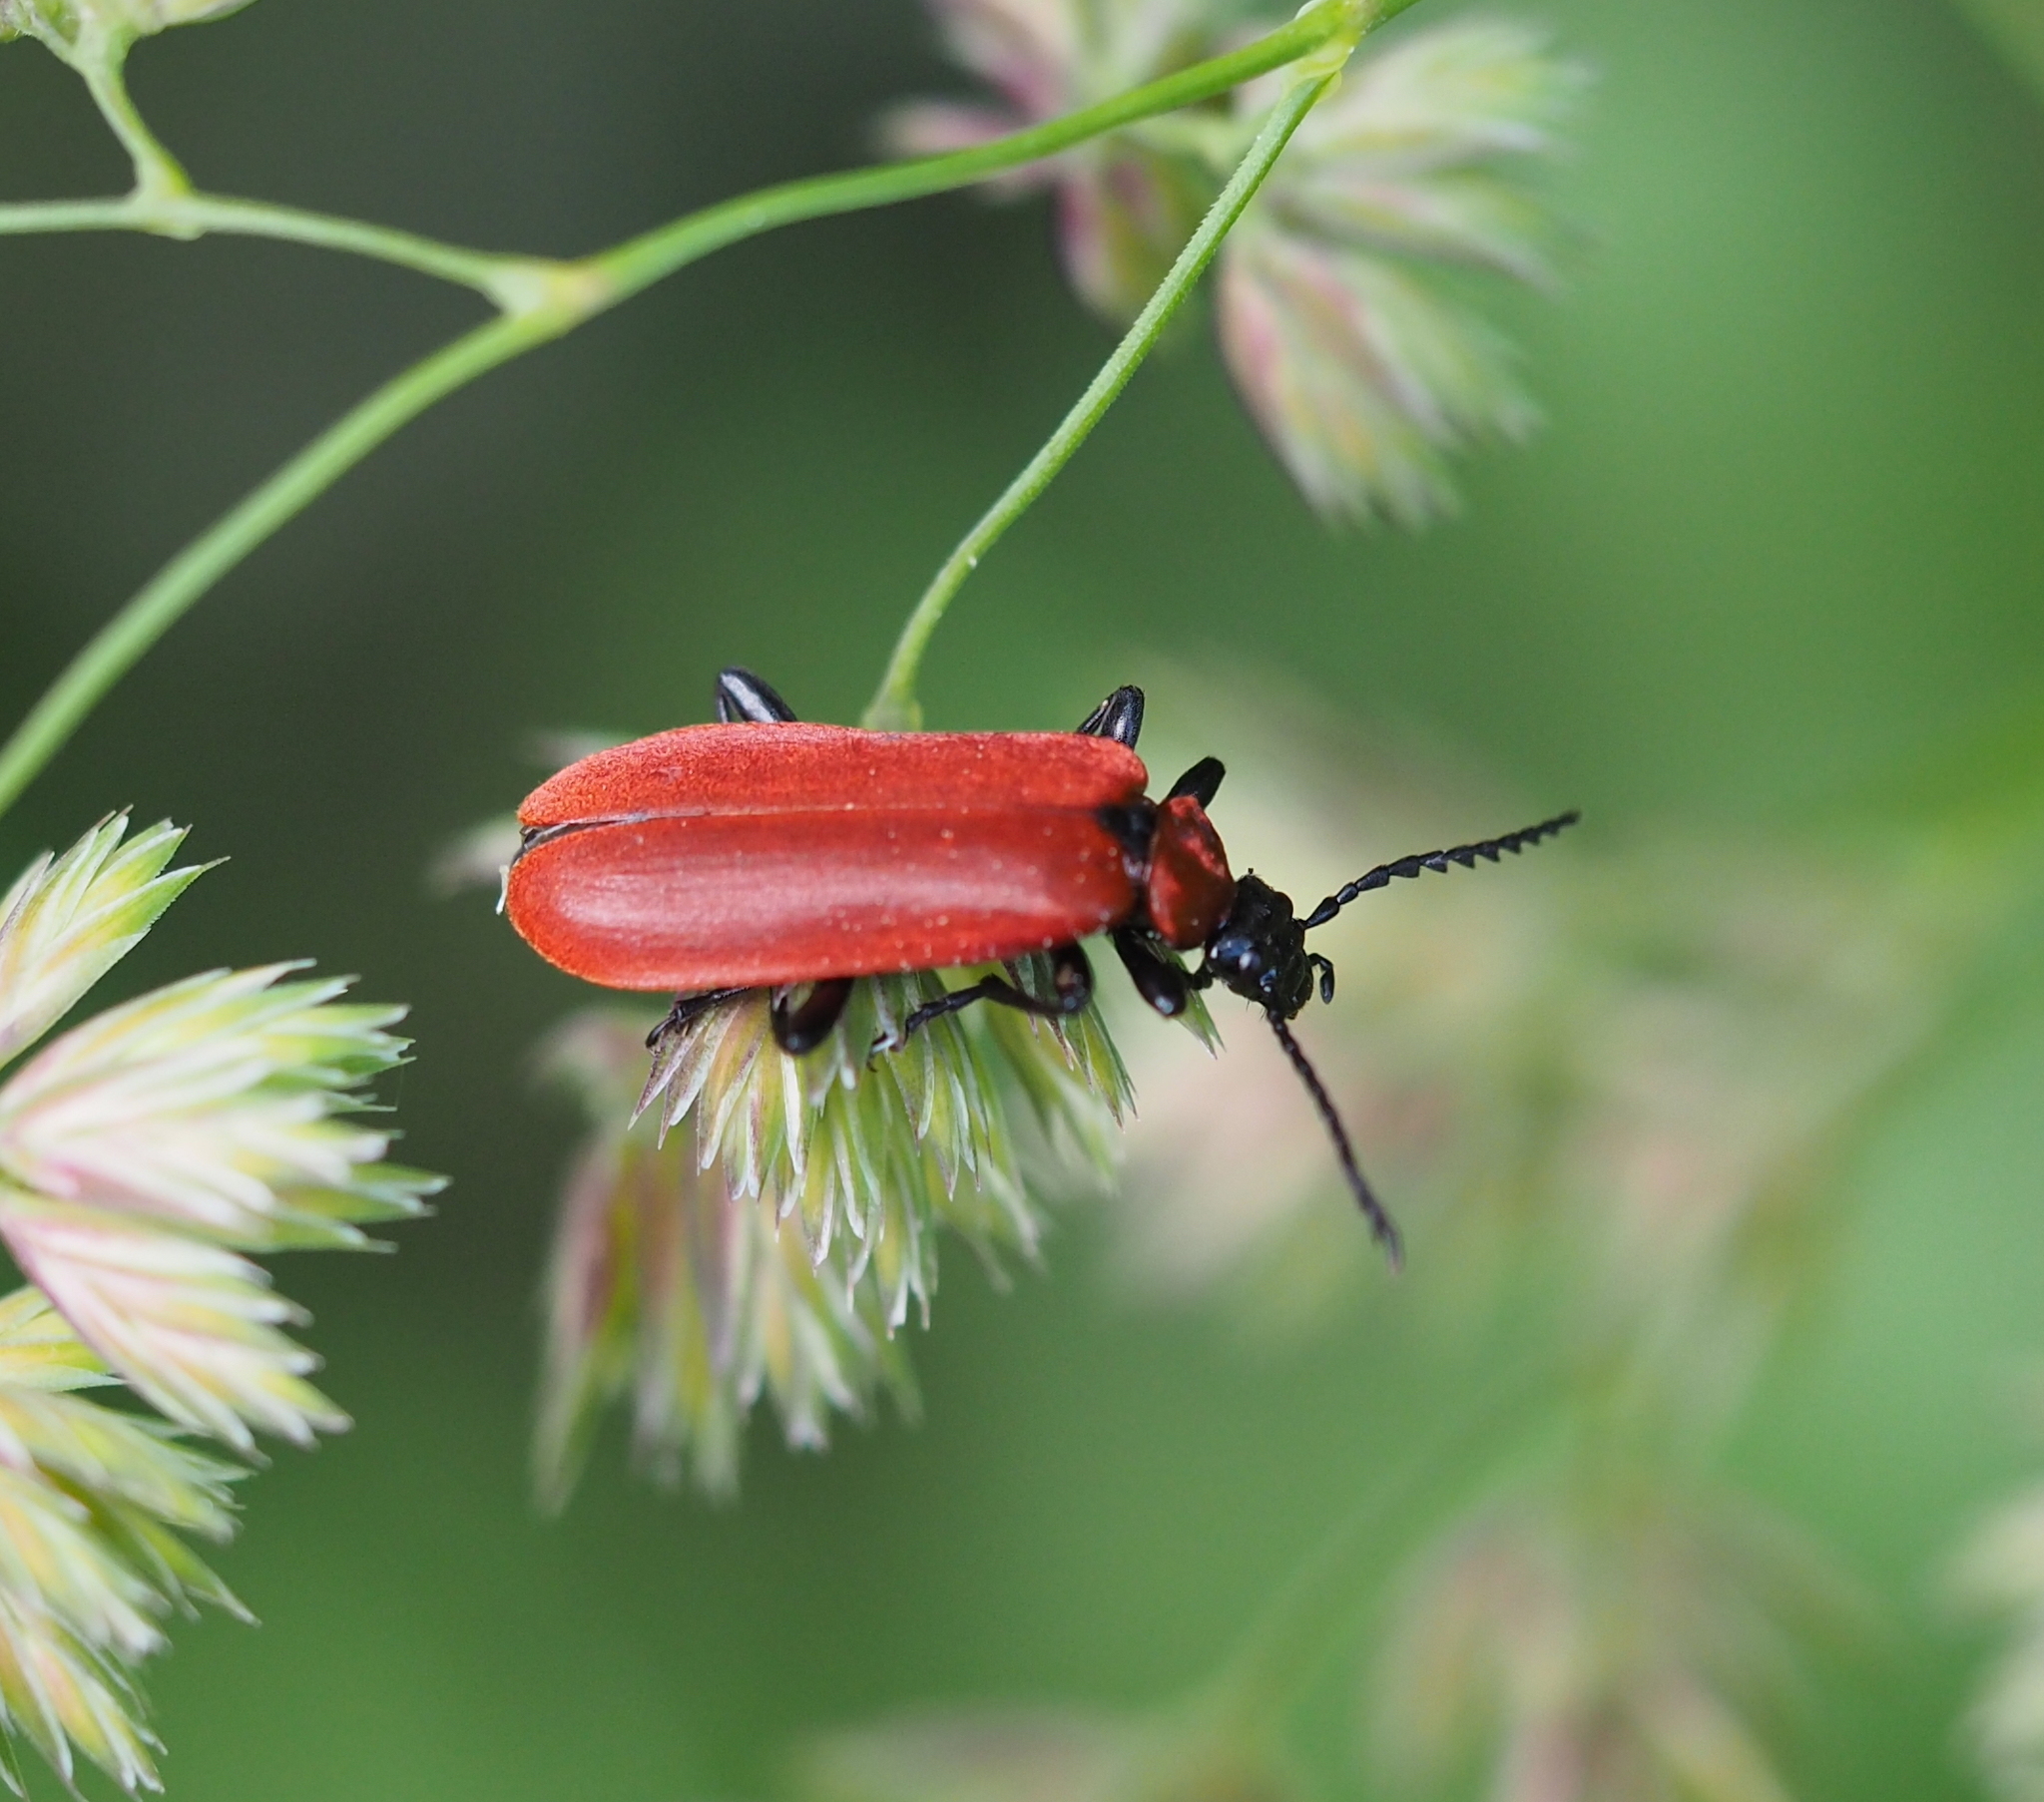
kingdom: Animalia
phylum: Arthropoda
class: Insecta
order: Coleoptera
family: Pyrochroidae
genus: Pyrochroa
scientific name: Pyrochroa coccinea
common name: Black-headed cardinal beetle
